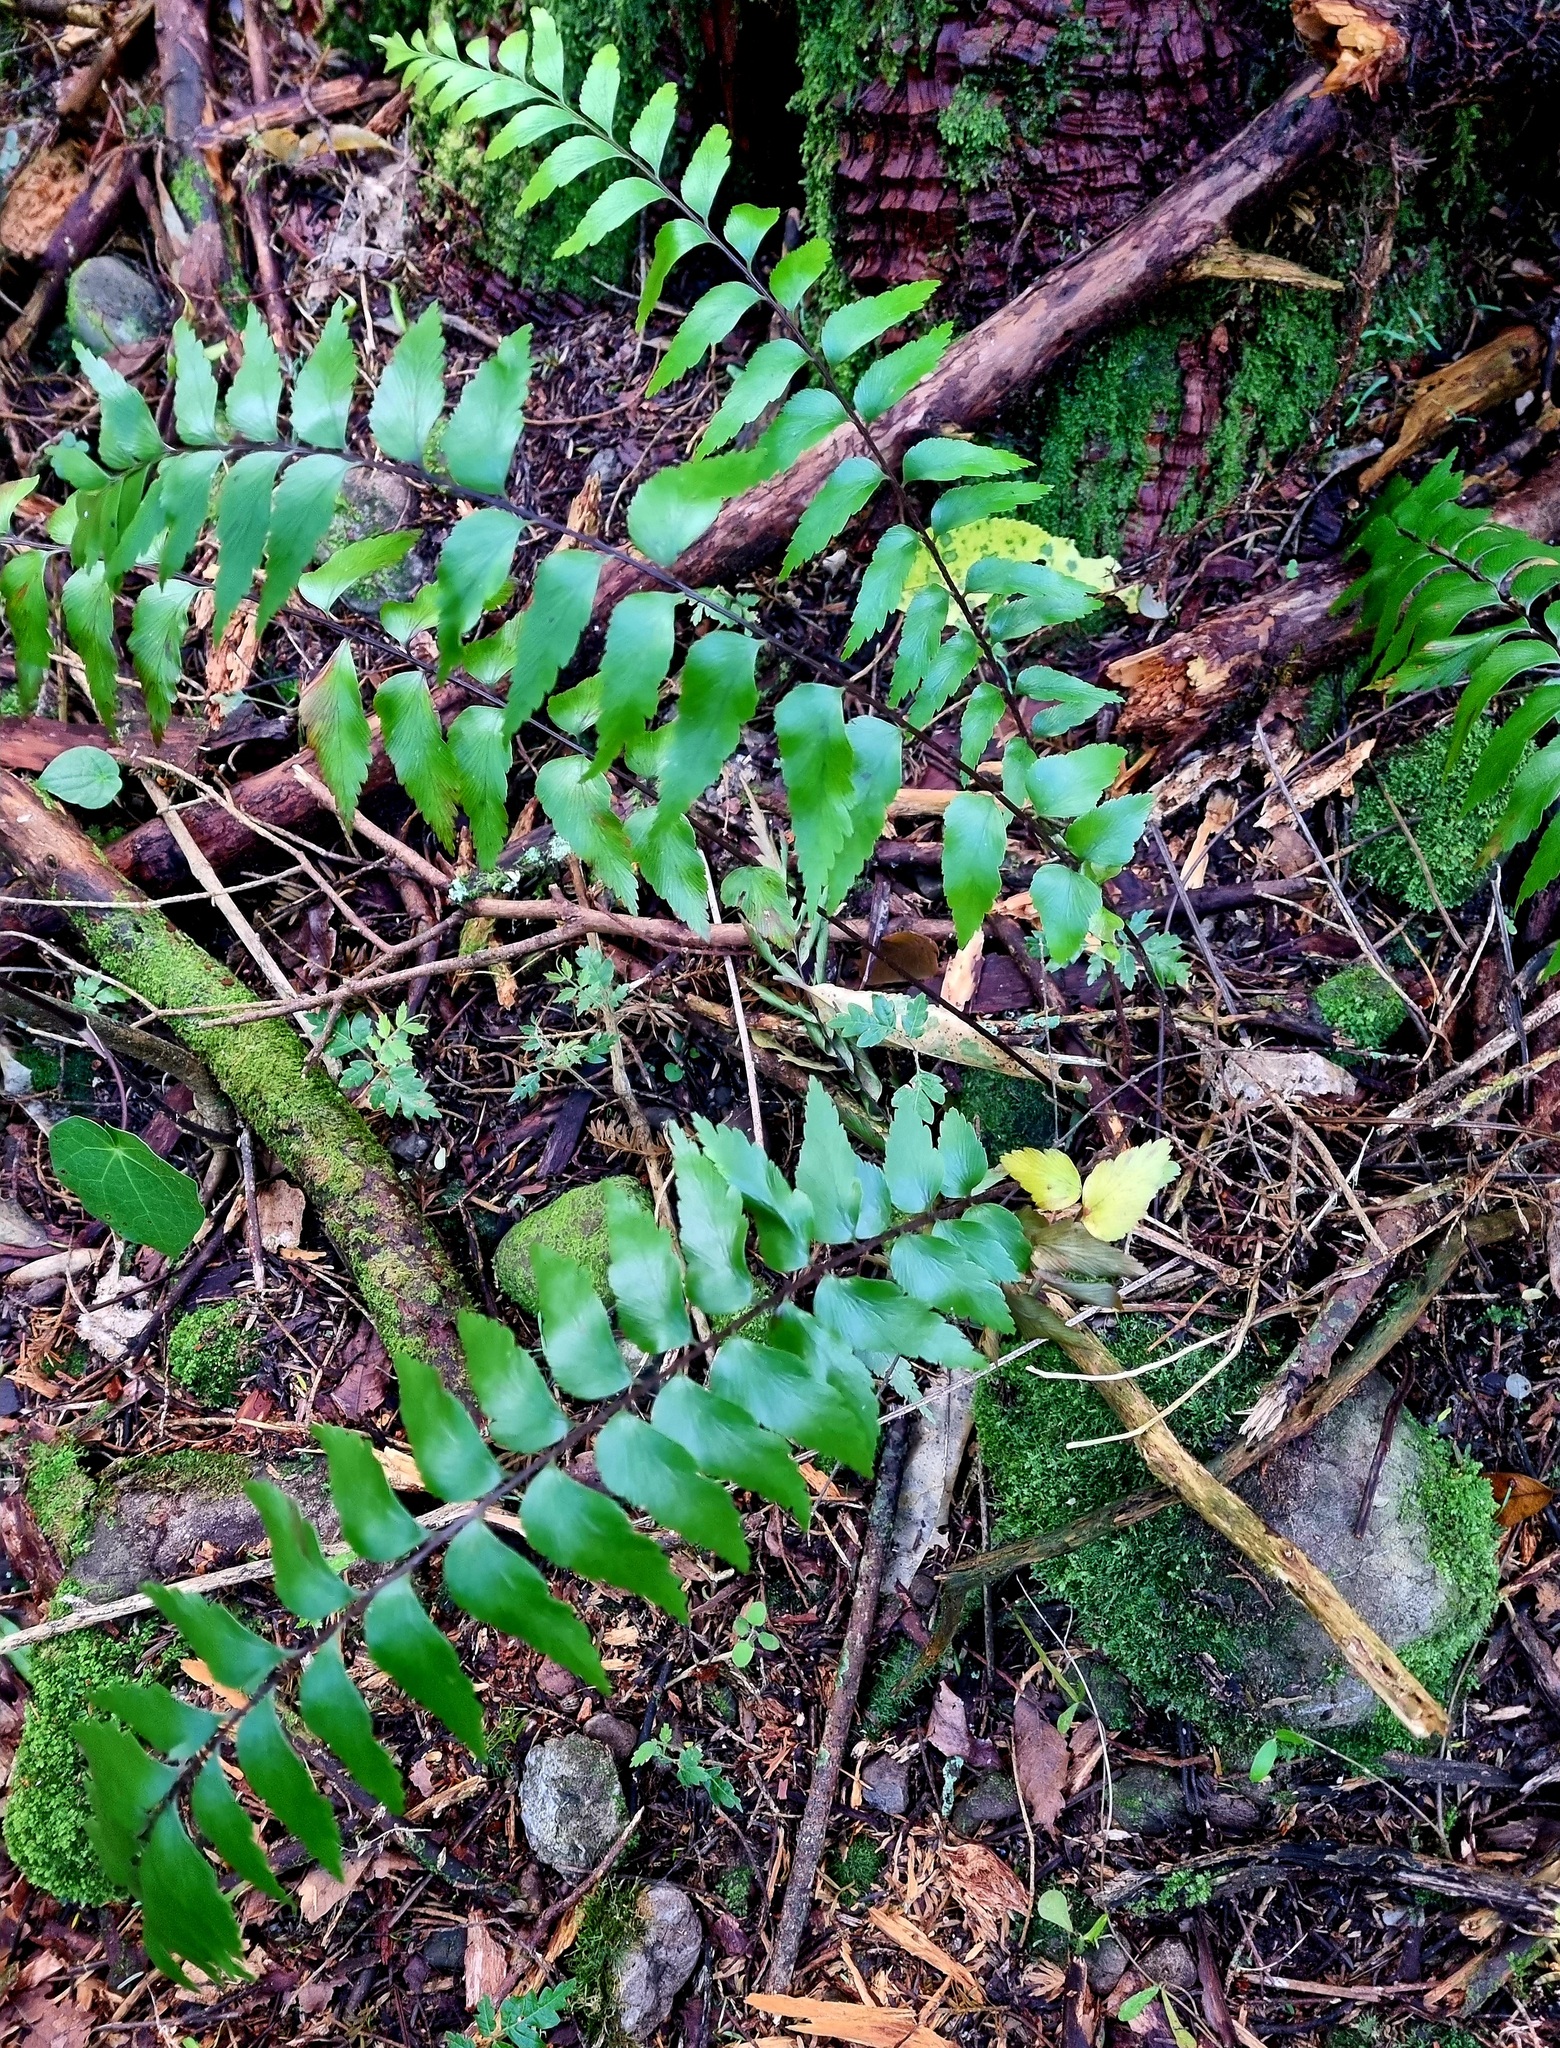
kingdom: Plantae
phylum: Tracheophyta
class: Polypodiopsida
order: Polypodiales
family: Aspleniaceae
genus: Asplenium
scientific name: Asplenium polyodon
